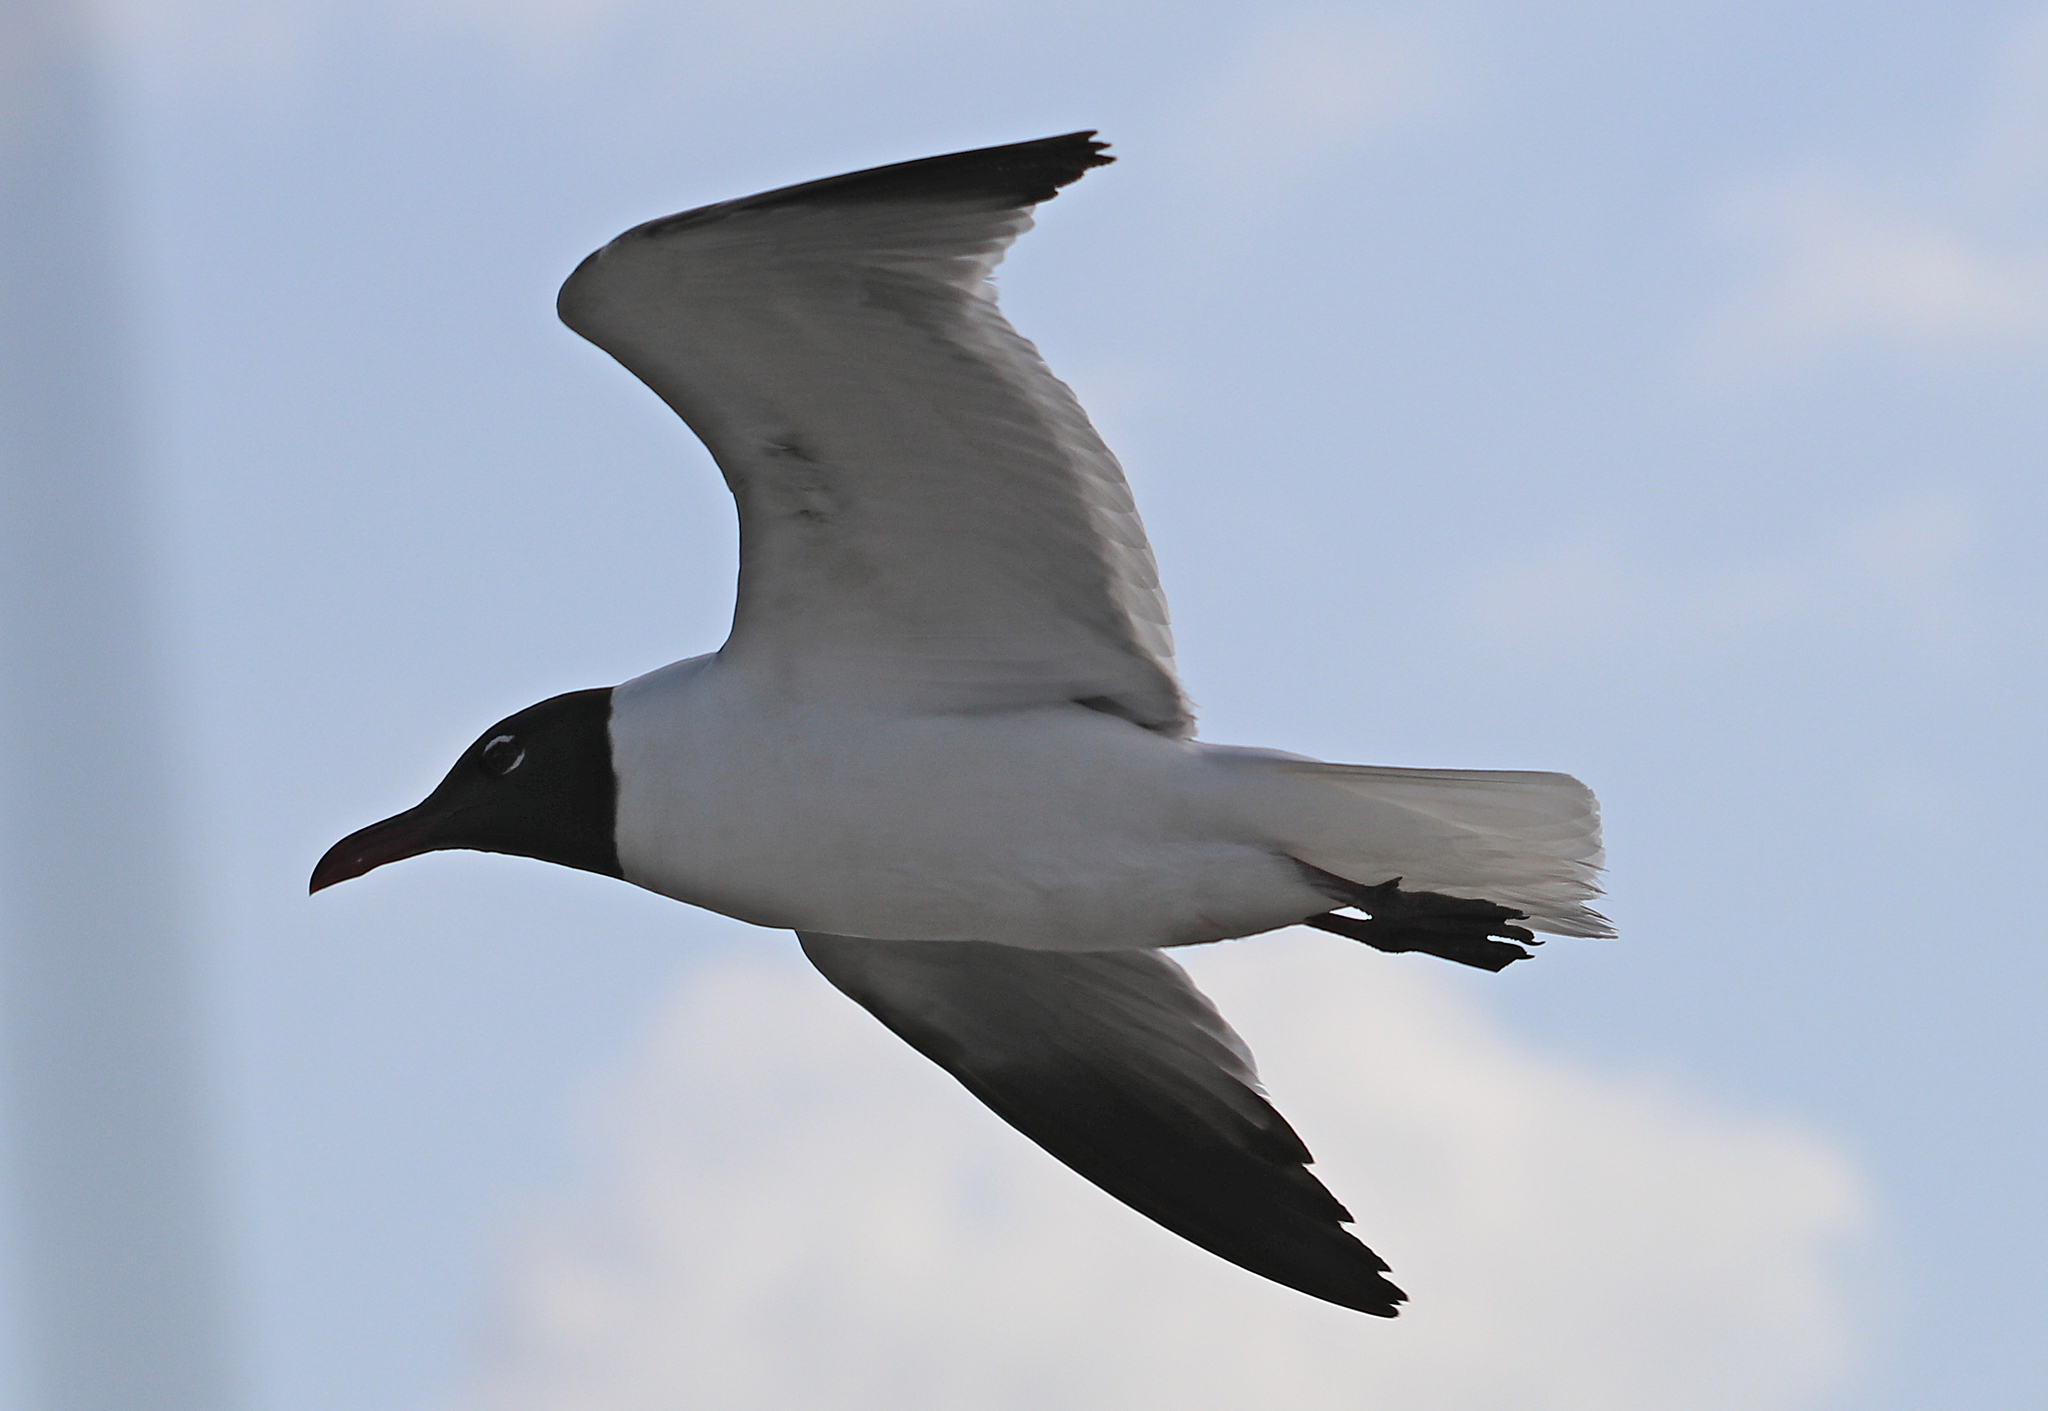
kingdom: Animalia
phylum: Chordata
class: Aves
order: Charadriiformes
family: Laridae
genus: Leucophaeus
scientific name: Leucophaeus atricilla
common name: Laughing gull
